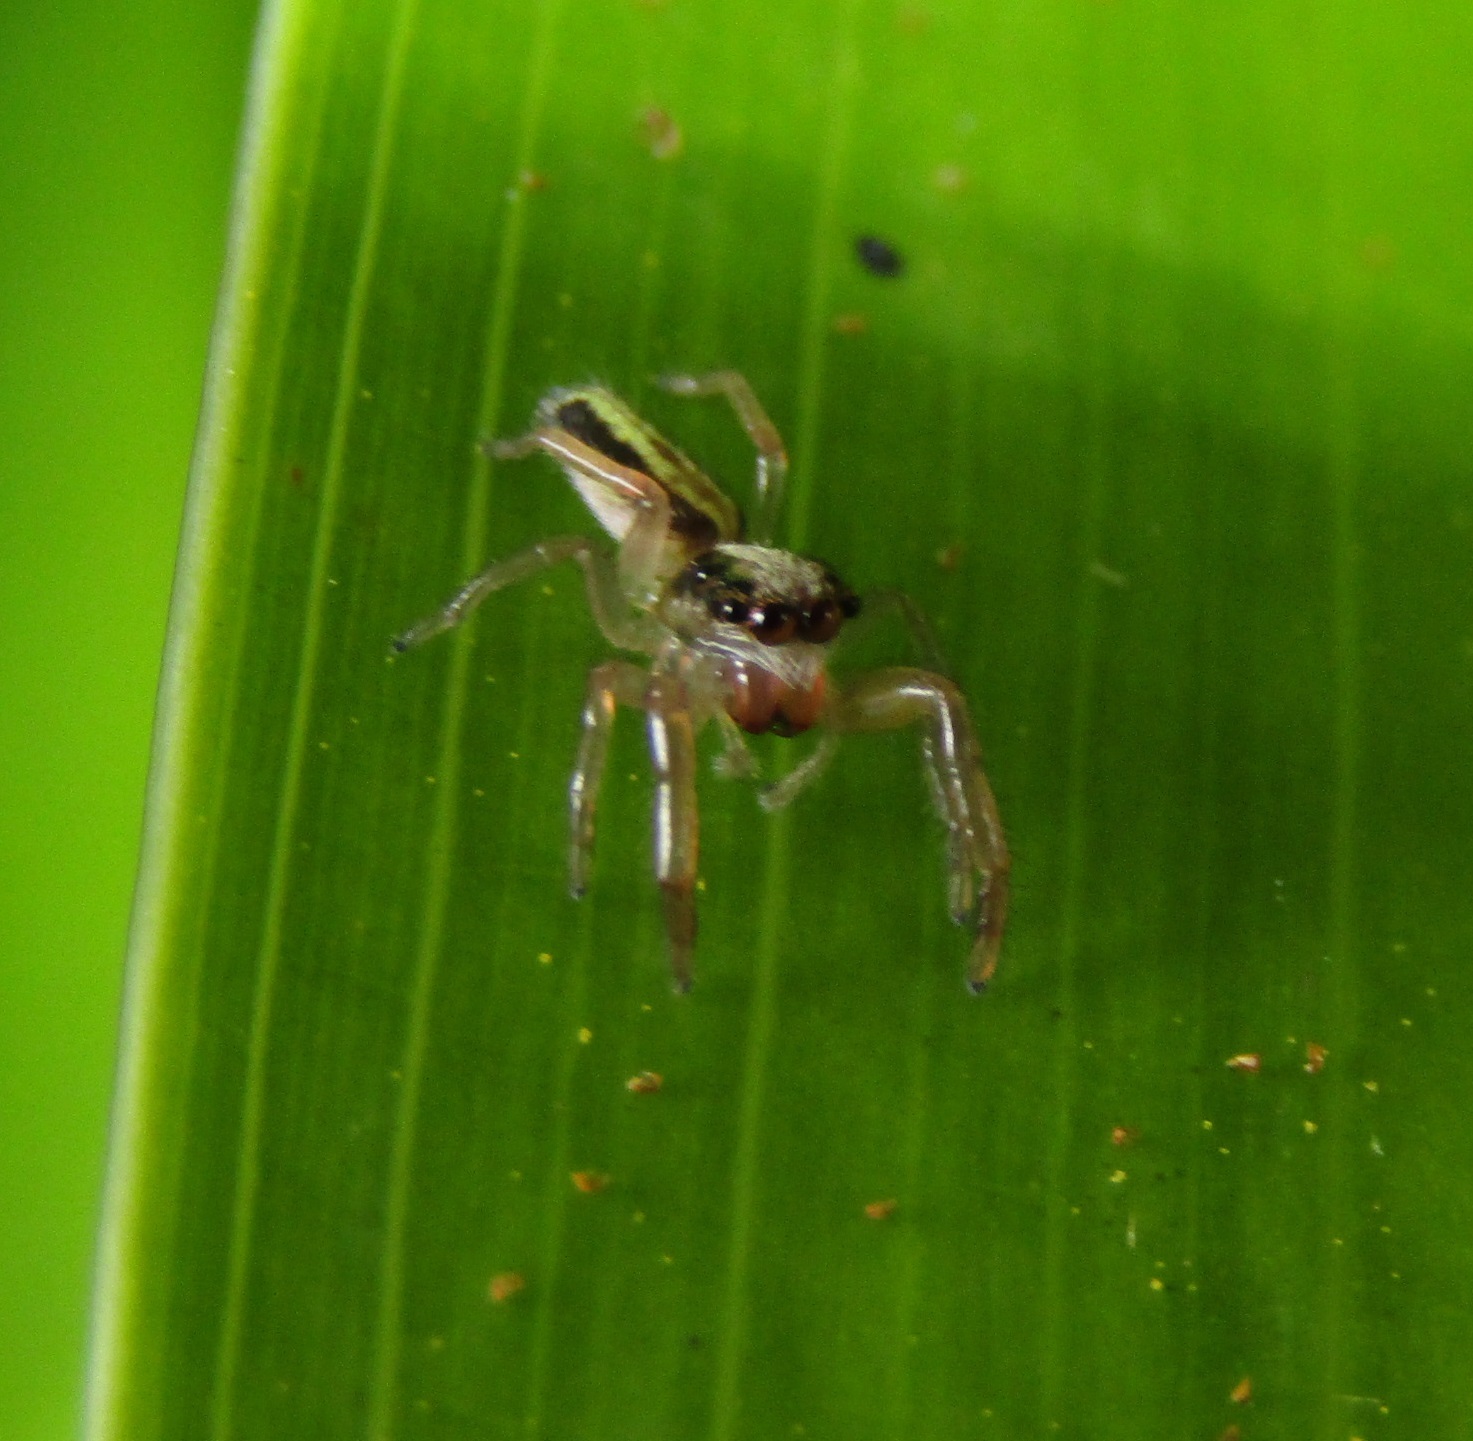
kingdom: Animalia
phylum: Arthropoda
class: Arachnida
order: Araneae
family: Salticidae
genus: Trite
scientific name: Trite planiceps
